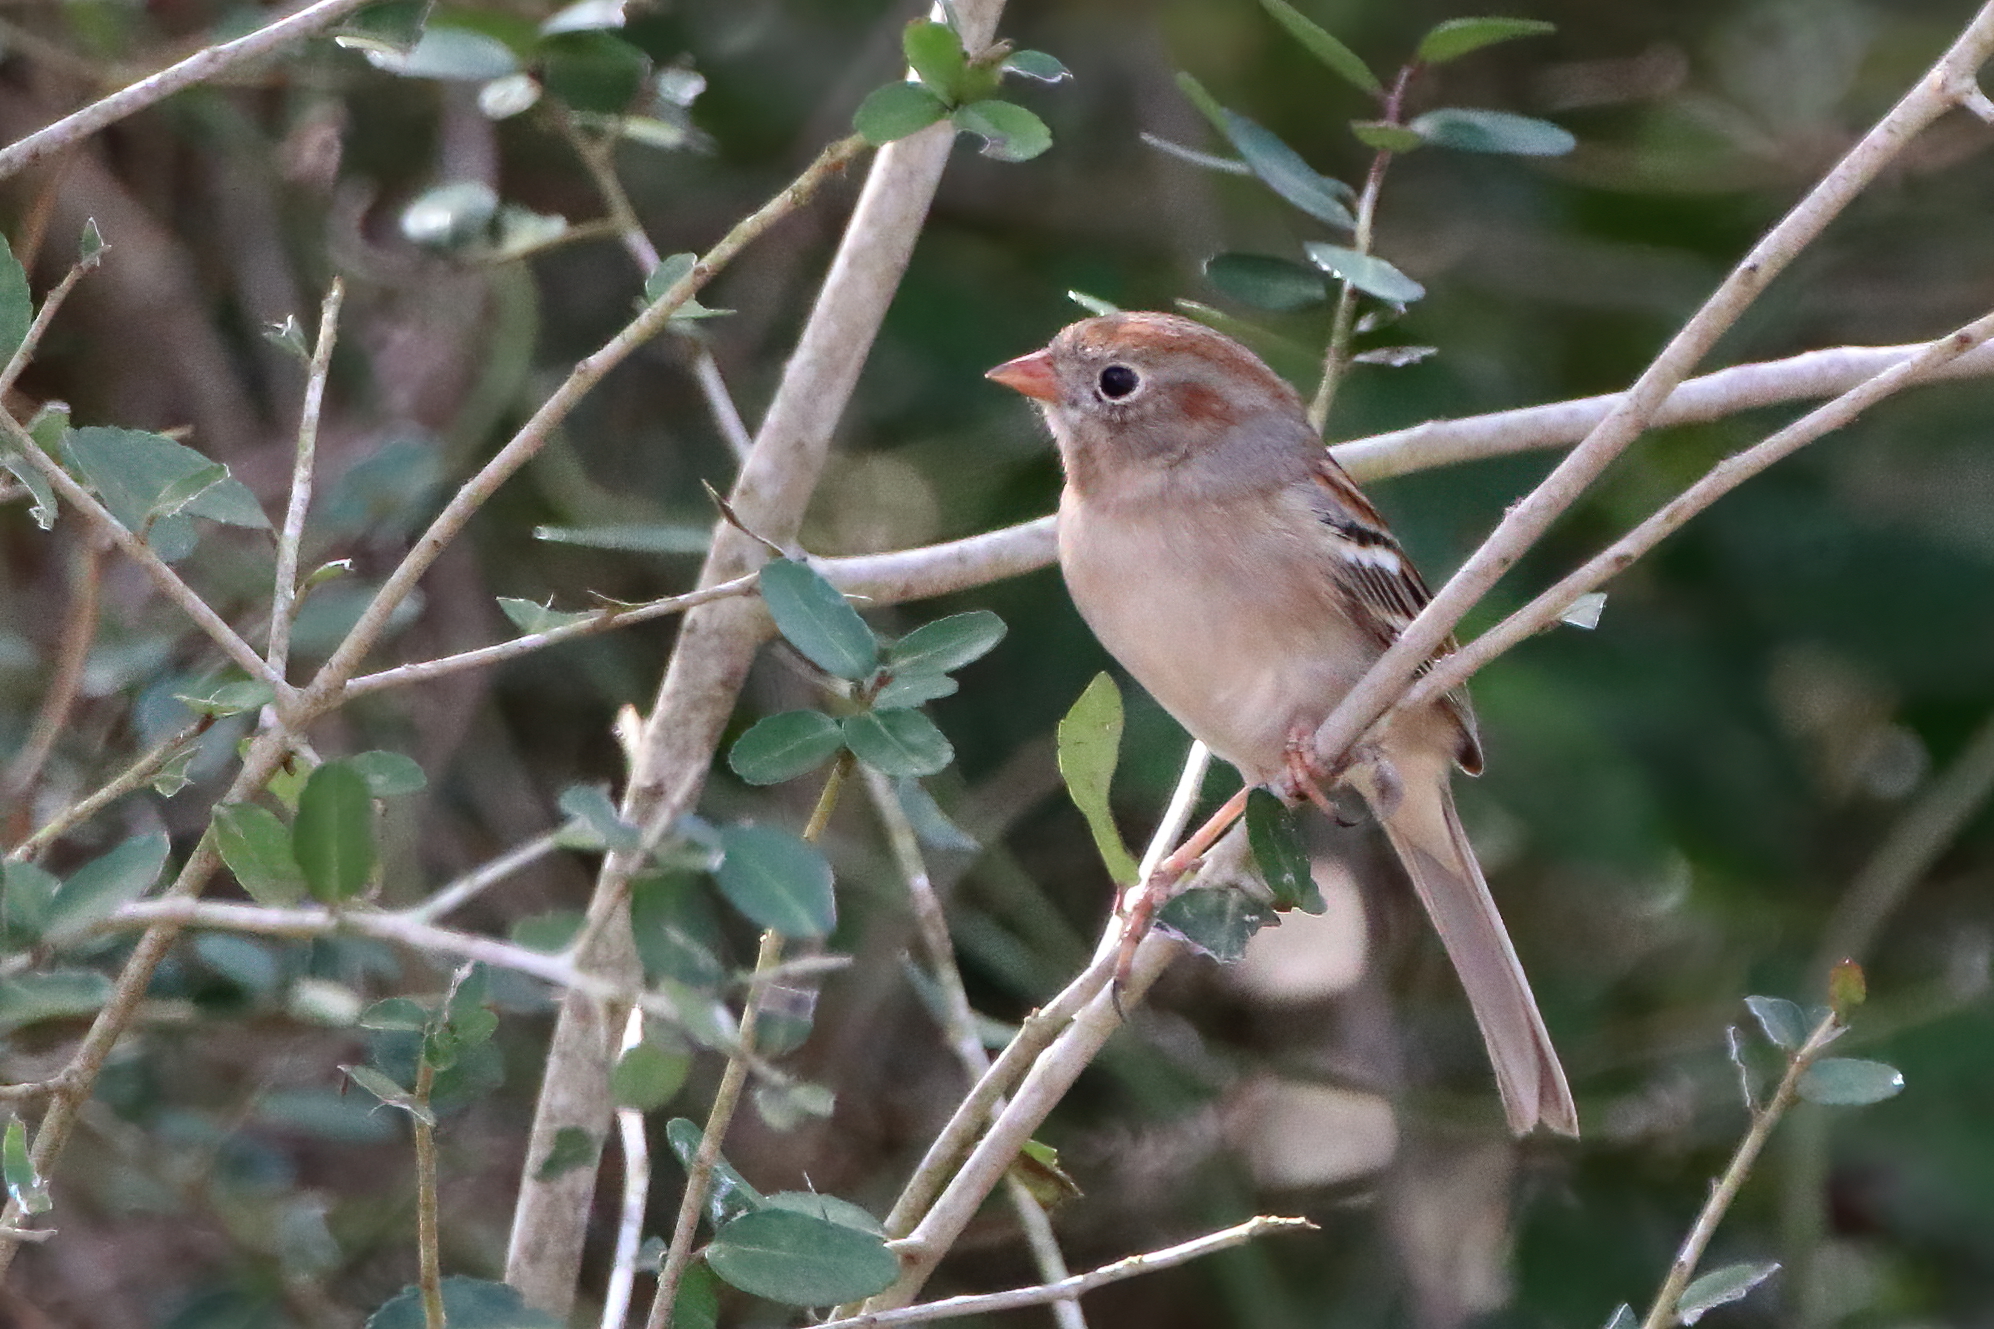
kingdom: Animalia
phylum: Chordata
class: Aves
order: Passeriformes
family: Passerellidae
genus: Spizella
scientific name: Spizella pusilla
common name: Field sparrow
